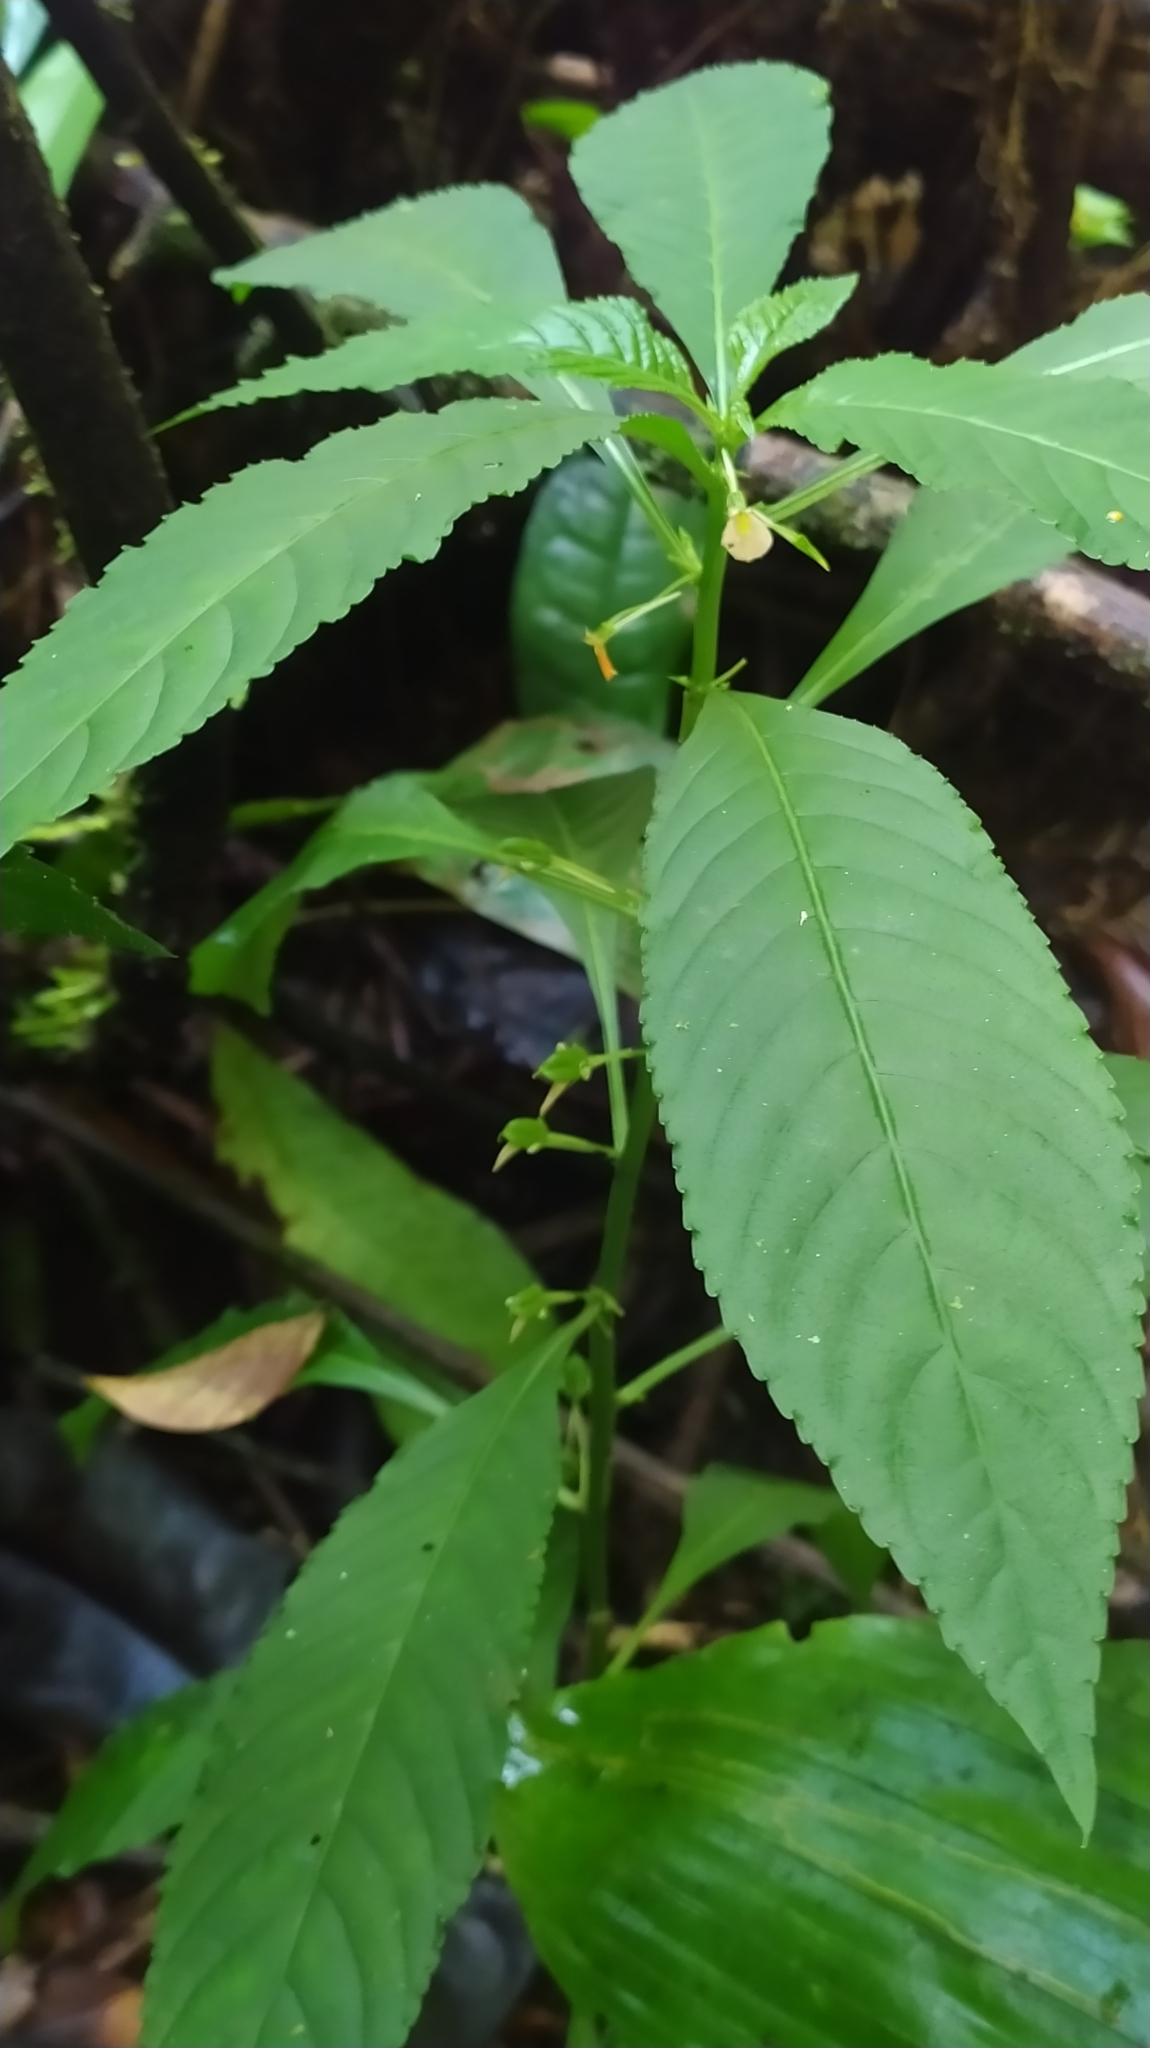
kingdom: Plantae
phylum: Tracheophyta
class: Magnoliopsida
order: Malpighiales
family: Violaceae
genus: Noisettia
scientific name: Noisettia orchidiflora
